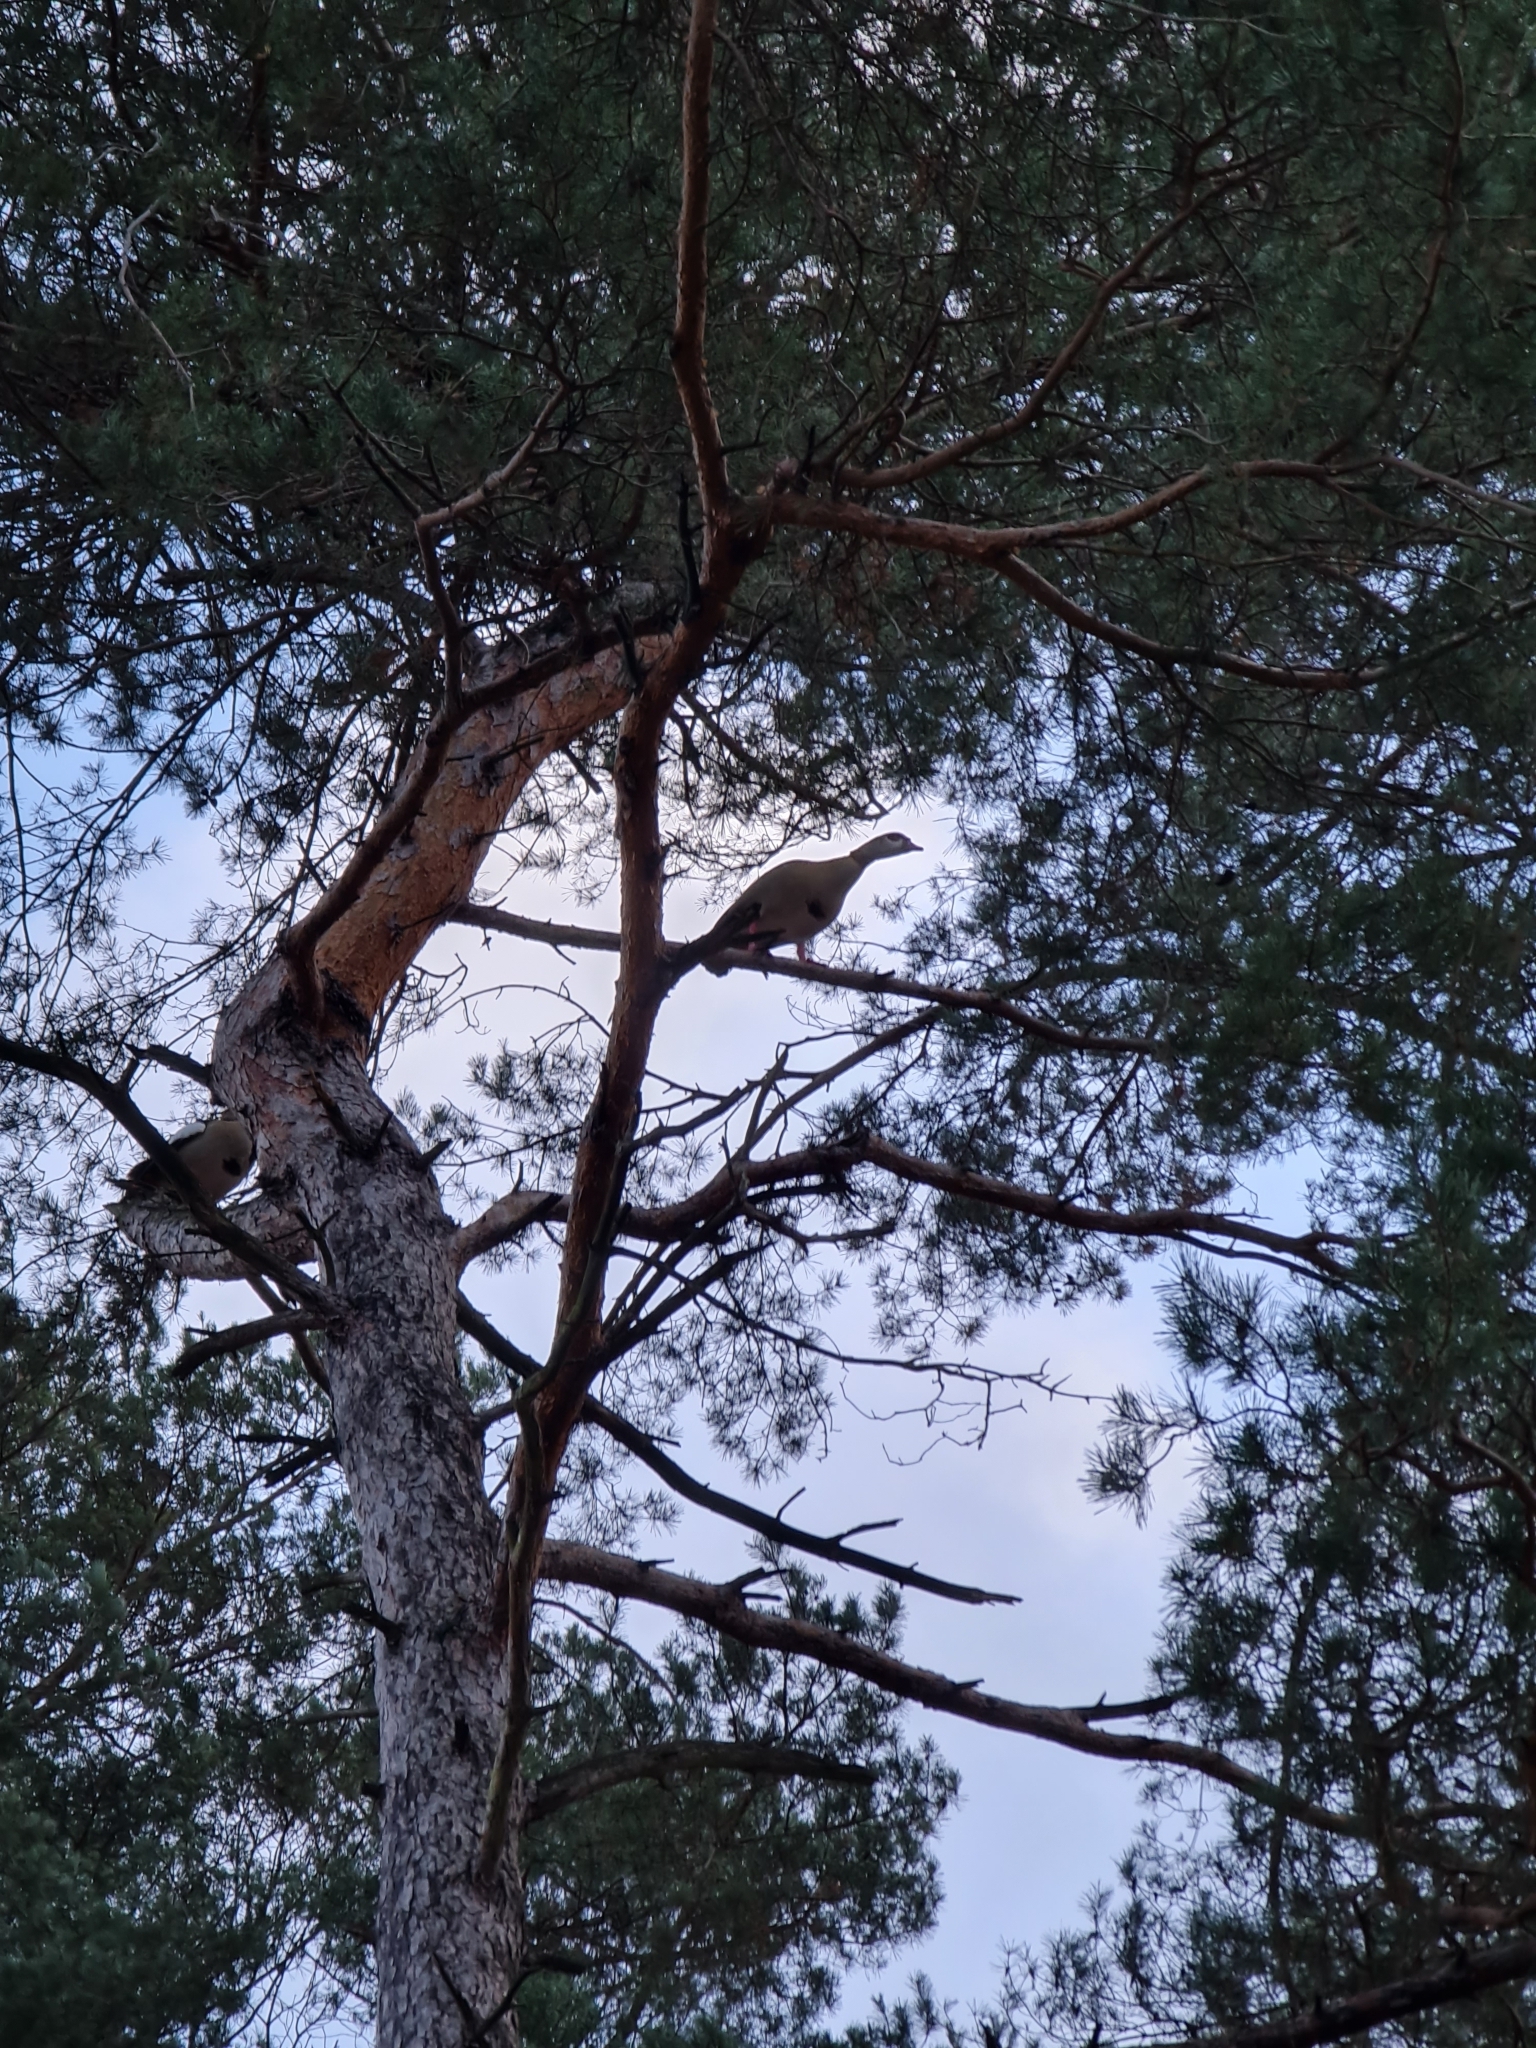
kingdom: Animalia
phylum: Chordata
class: Aves
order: Anseriformes
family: Anatidae
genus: Alopochen
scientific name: Alopochen aegyptiaca
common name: Egyptian goose
